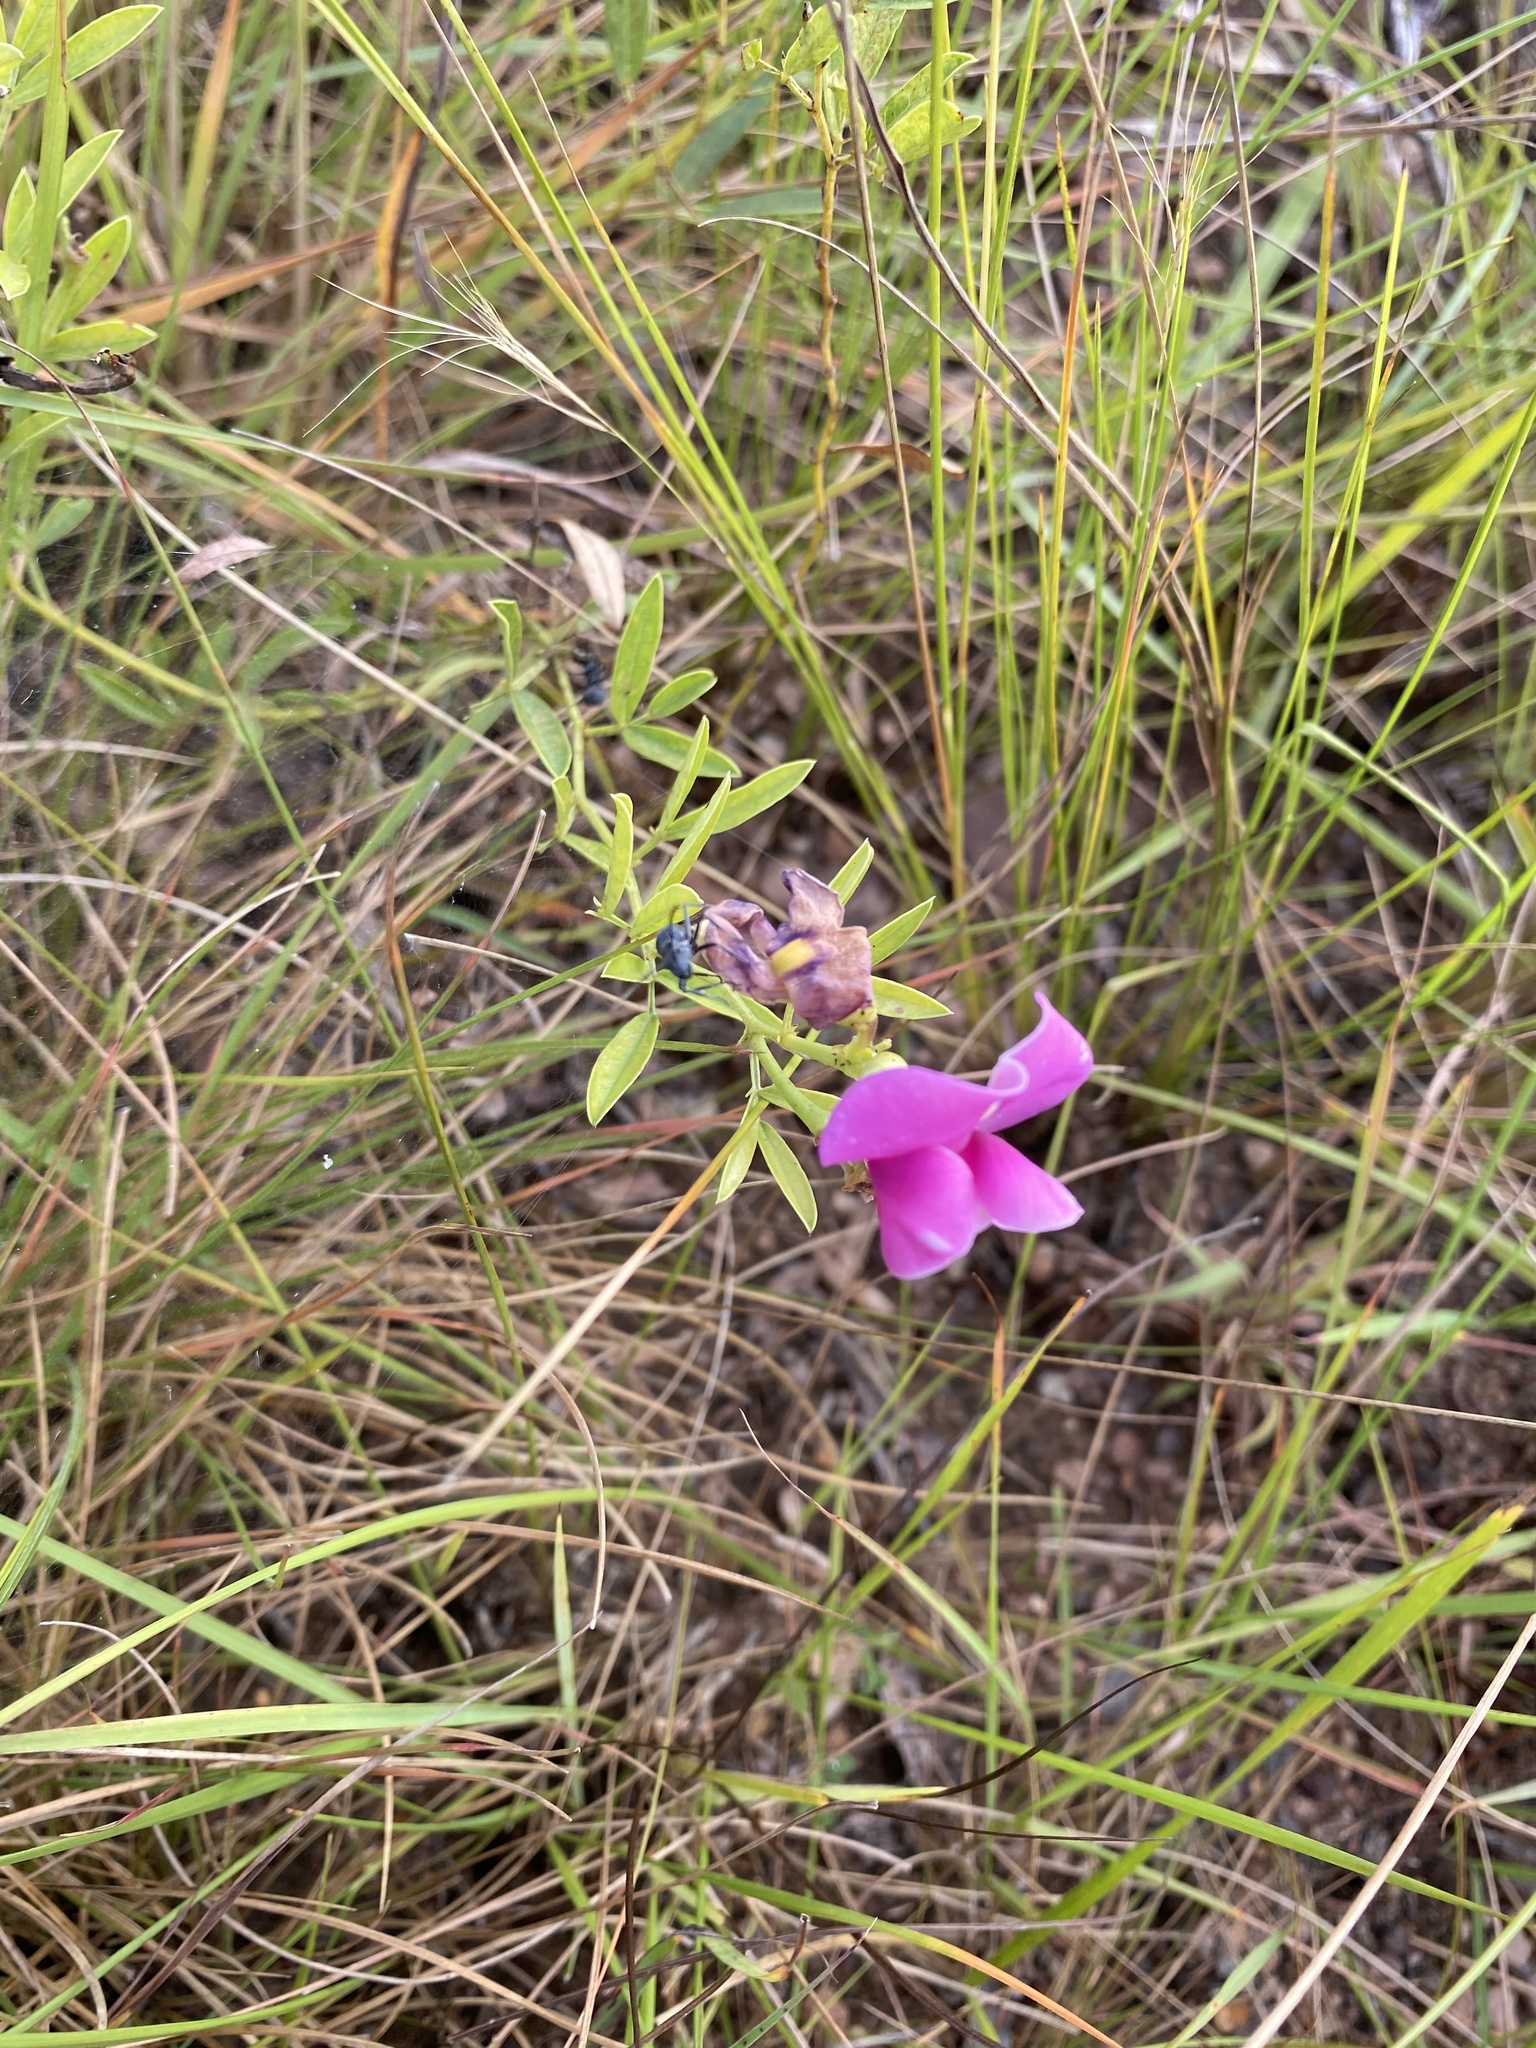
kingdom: Plantae
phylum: Tracheophyta
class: Magnoliopsida
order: Fabales
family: Fabaceae
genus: Sphenostylis
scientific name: Sphenostylis angustifolia
